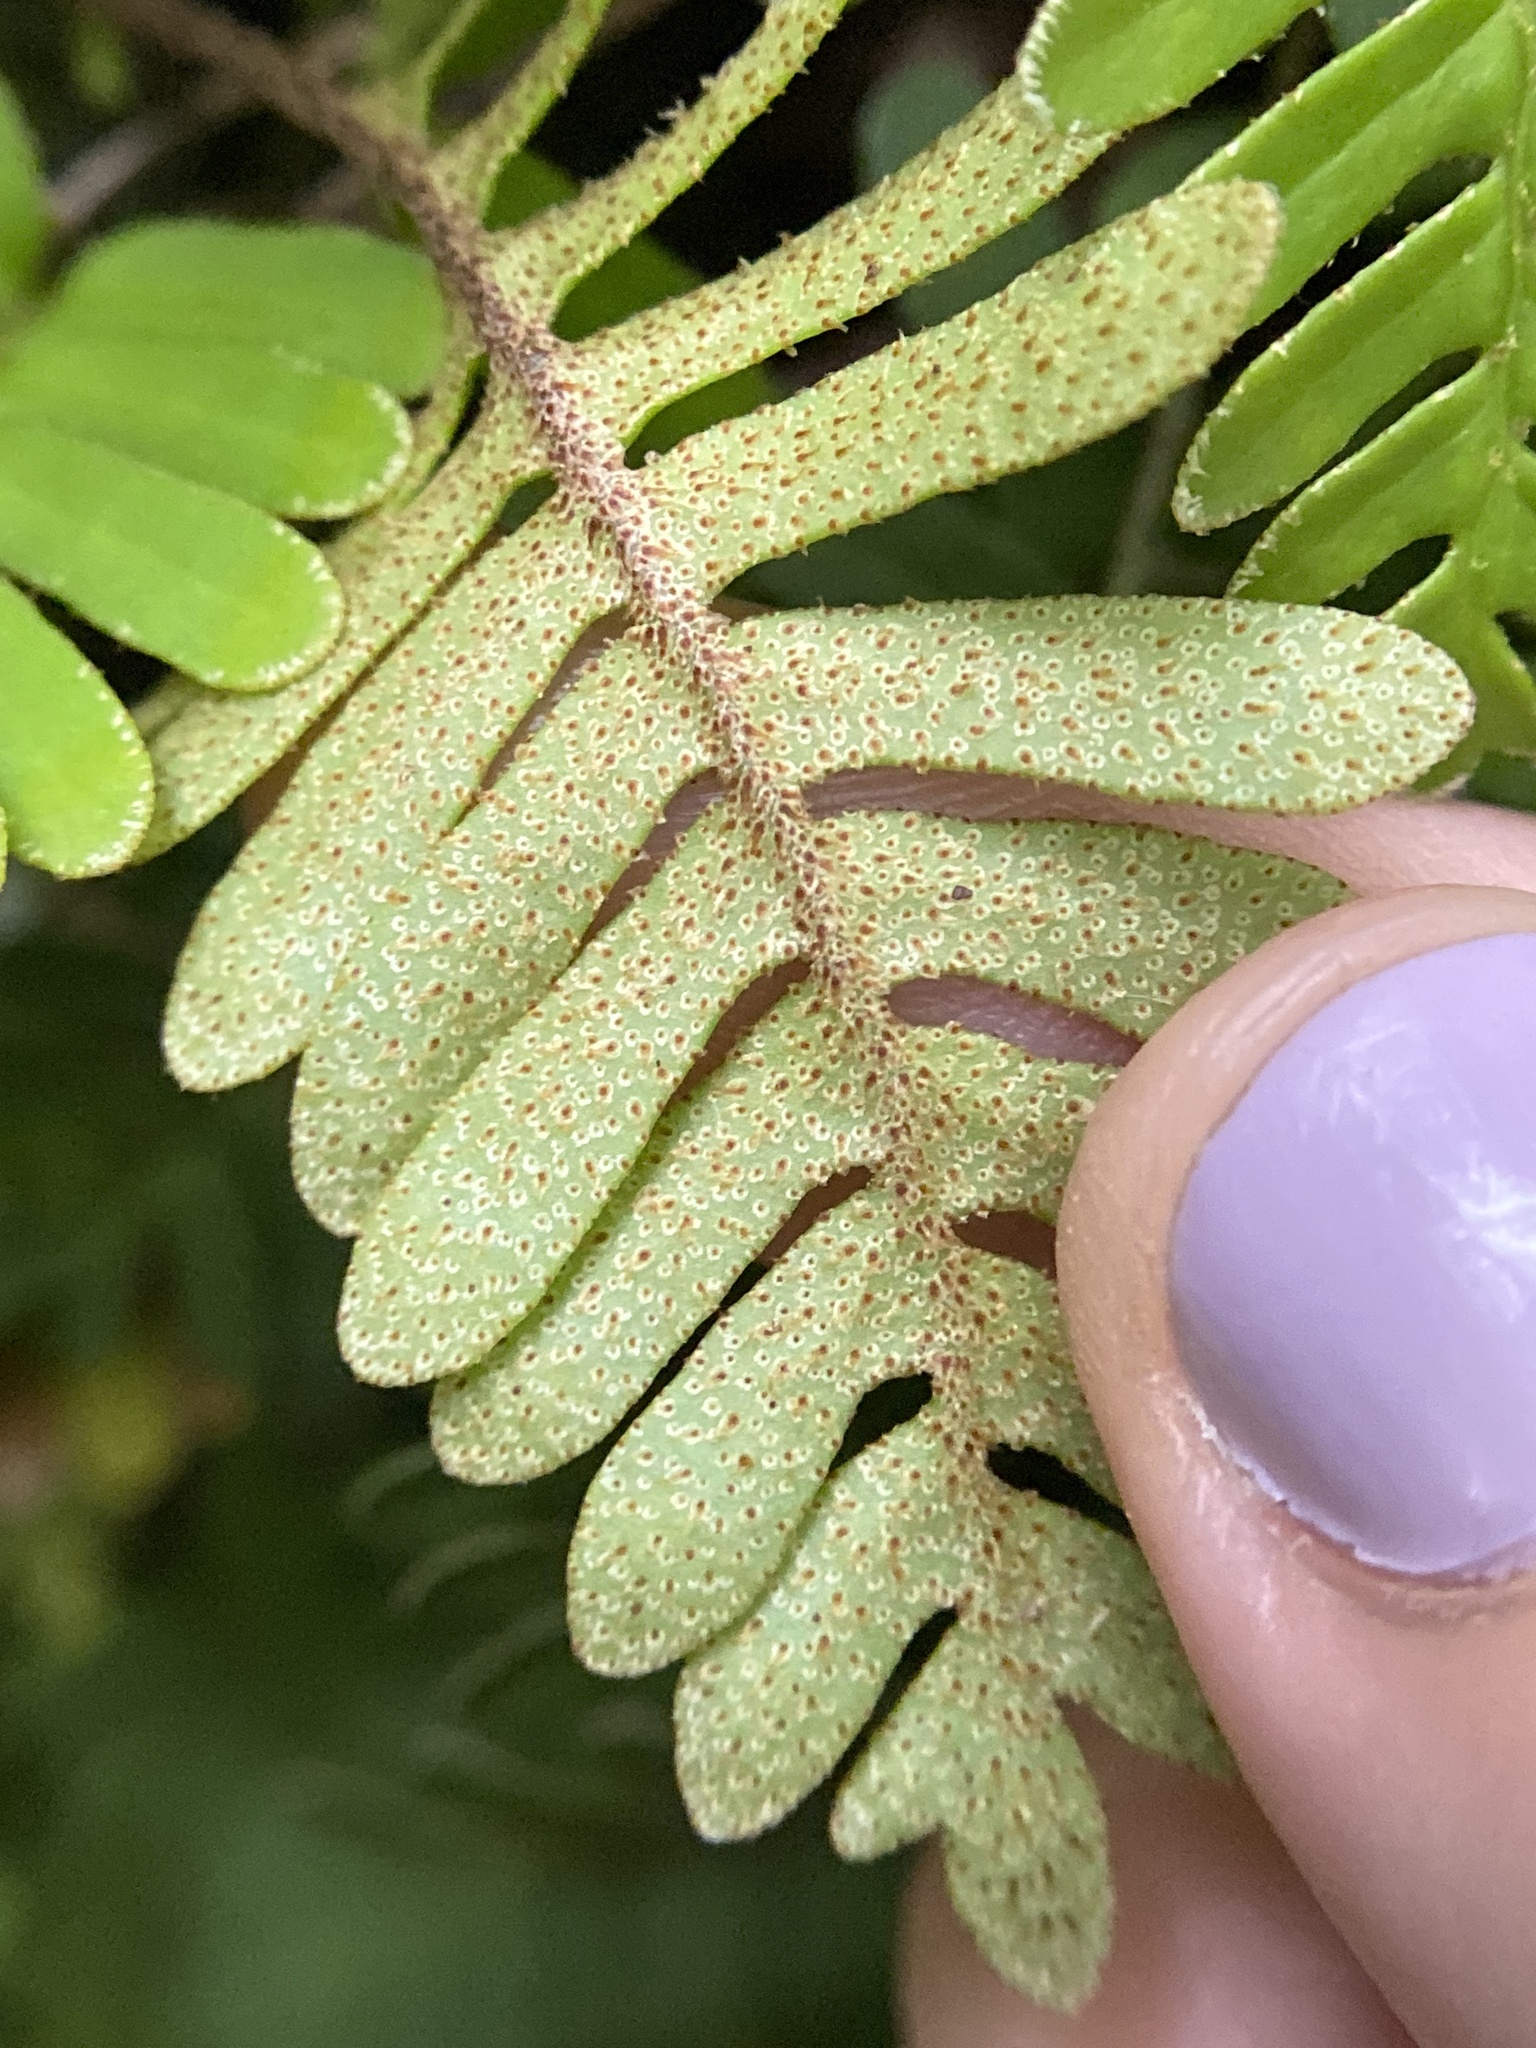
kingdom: Plantae
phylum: Tracheophyta
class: Polypodiopsida
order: Polypodiales
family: Polypodiaceae
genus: Pleopeltis
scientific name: Pleopeltis michauxiana
